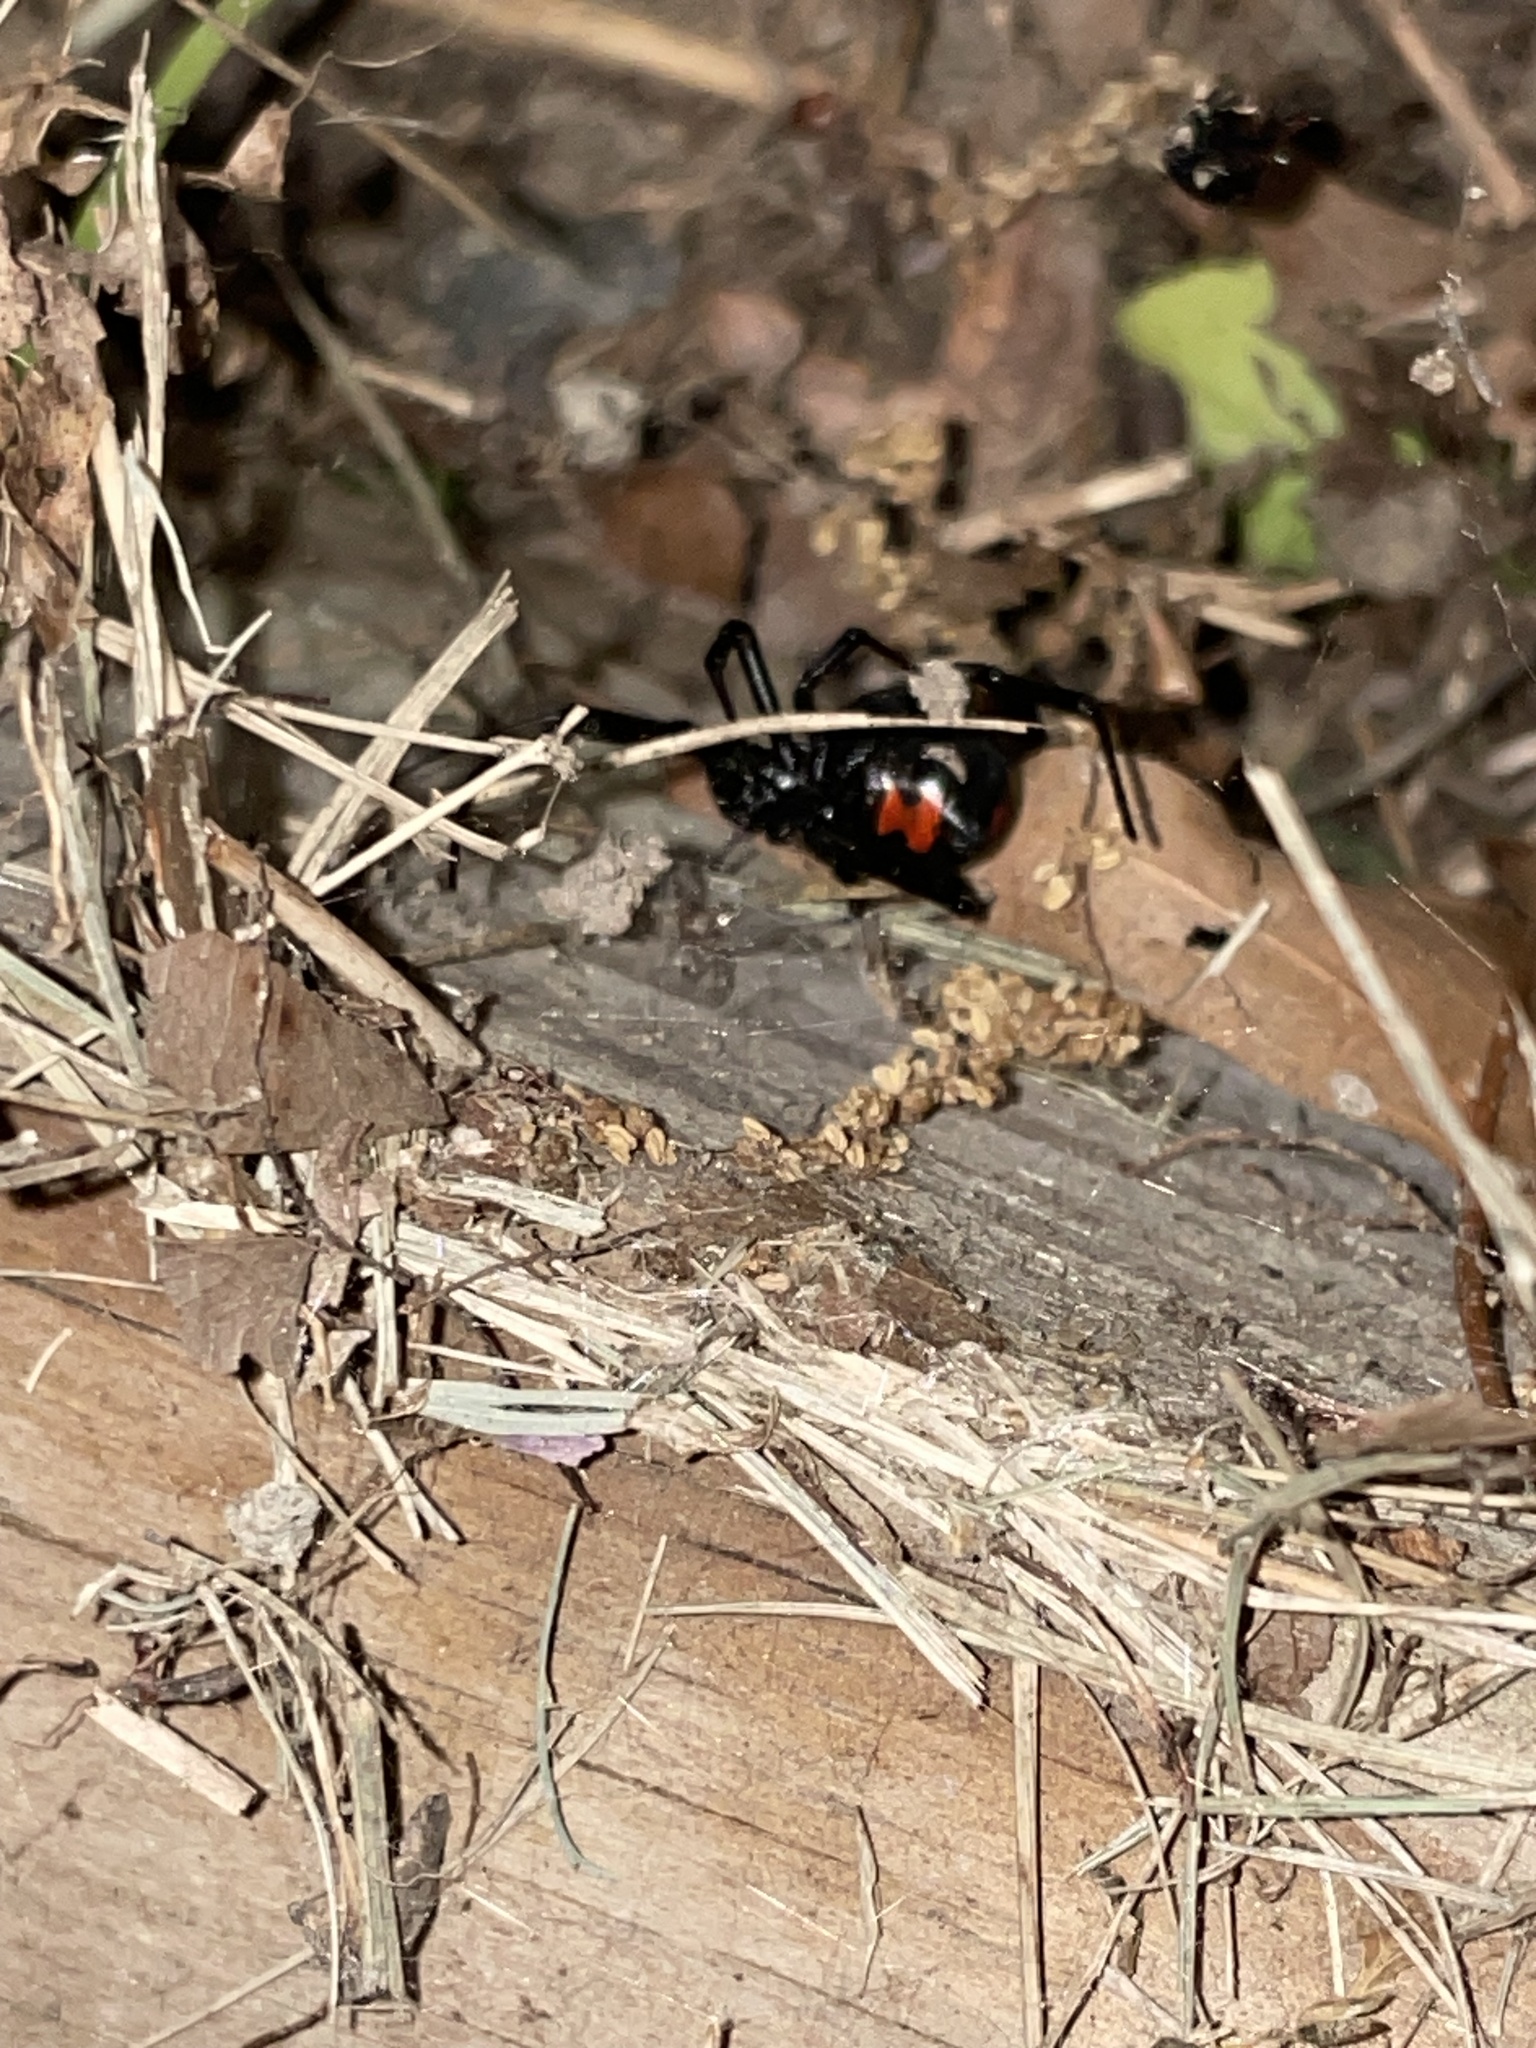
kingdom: Animalia
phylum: Arthropoda
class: Arachnida
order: Araneae
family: Theridiidae
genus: Latrodectus
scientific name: Latrodectus mactans
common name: Cobweb spiders
